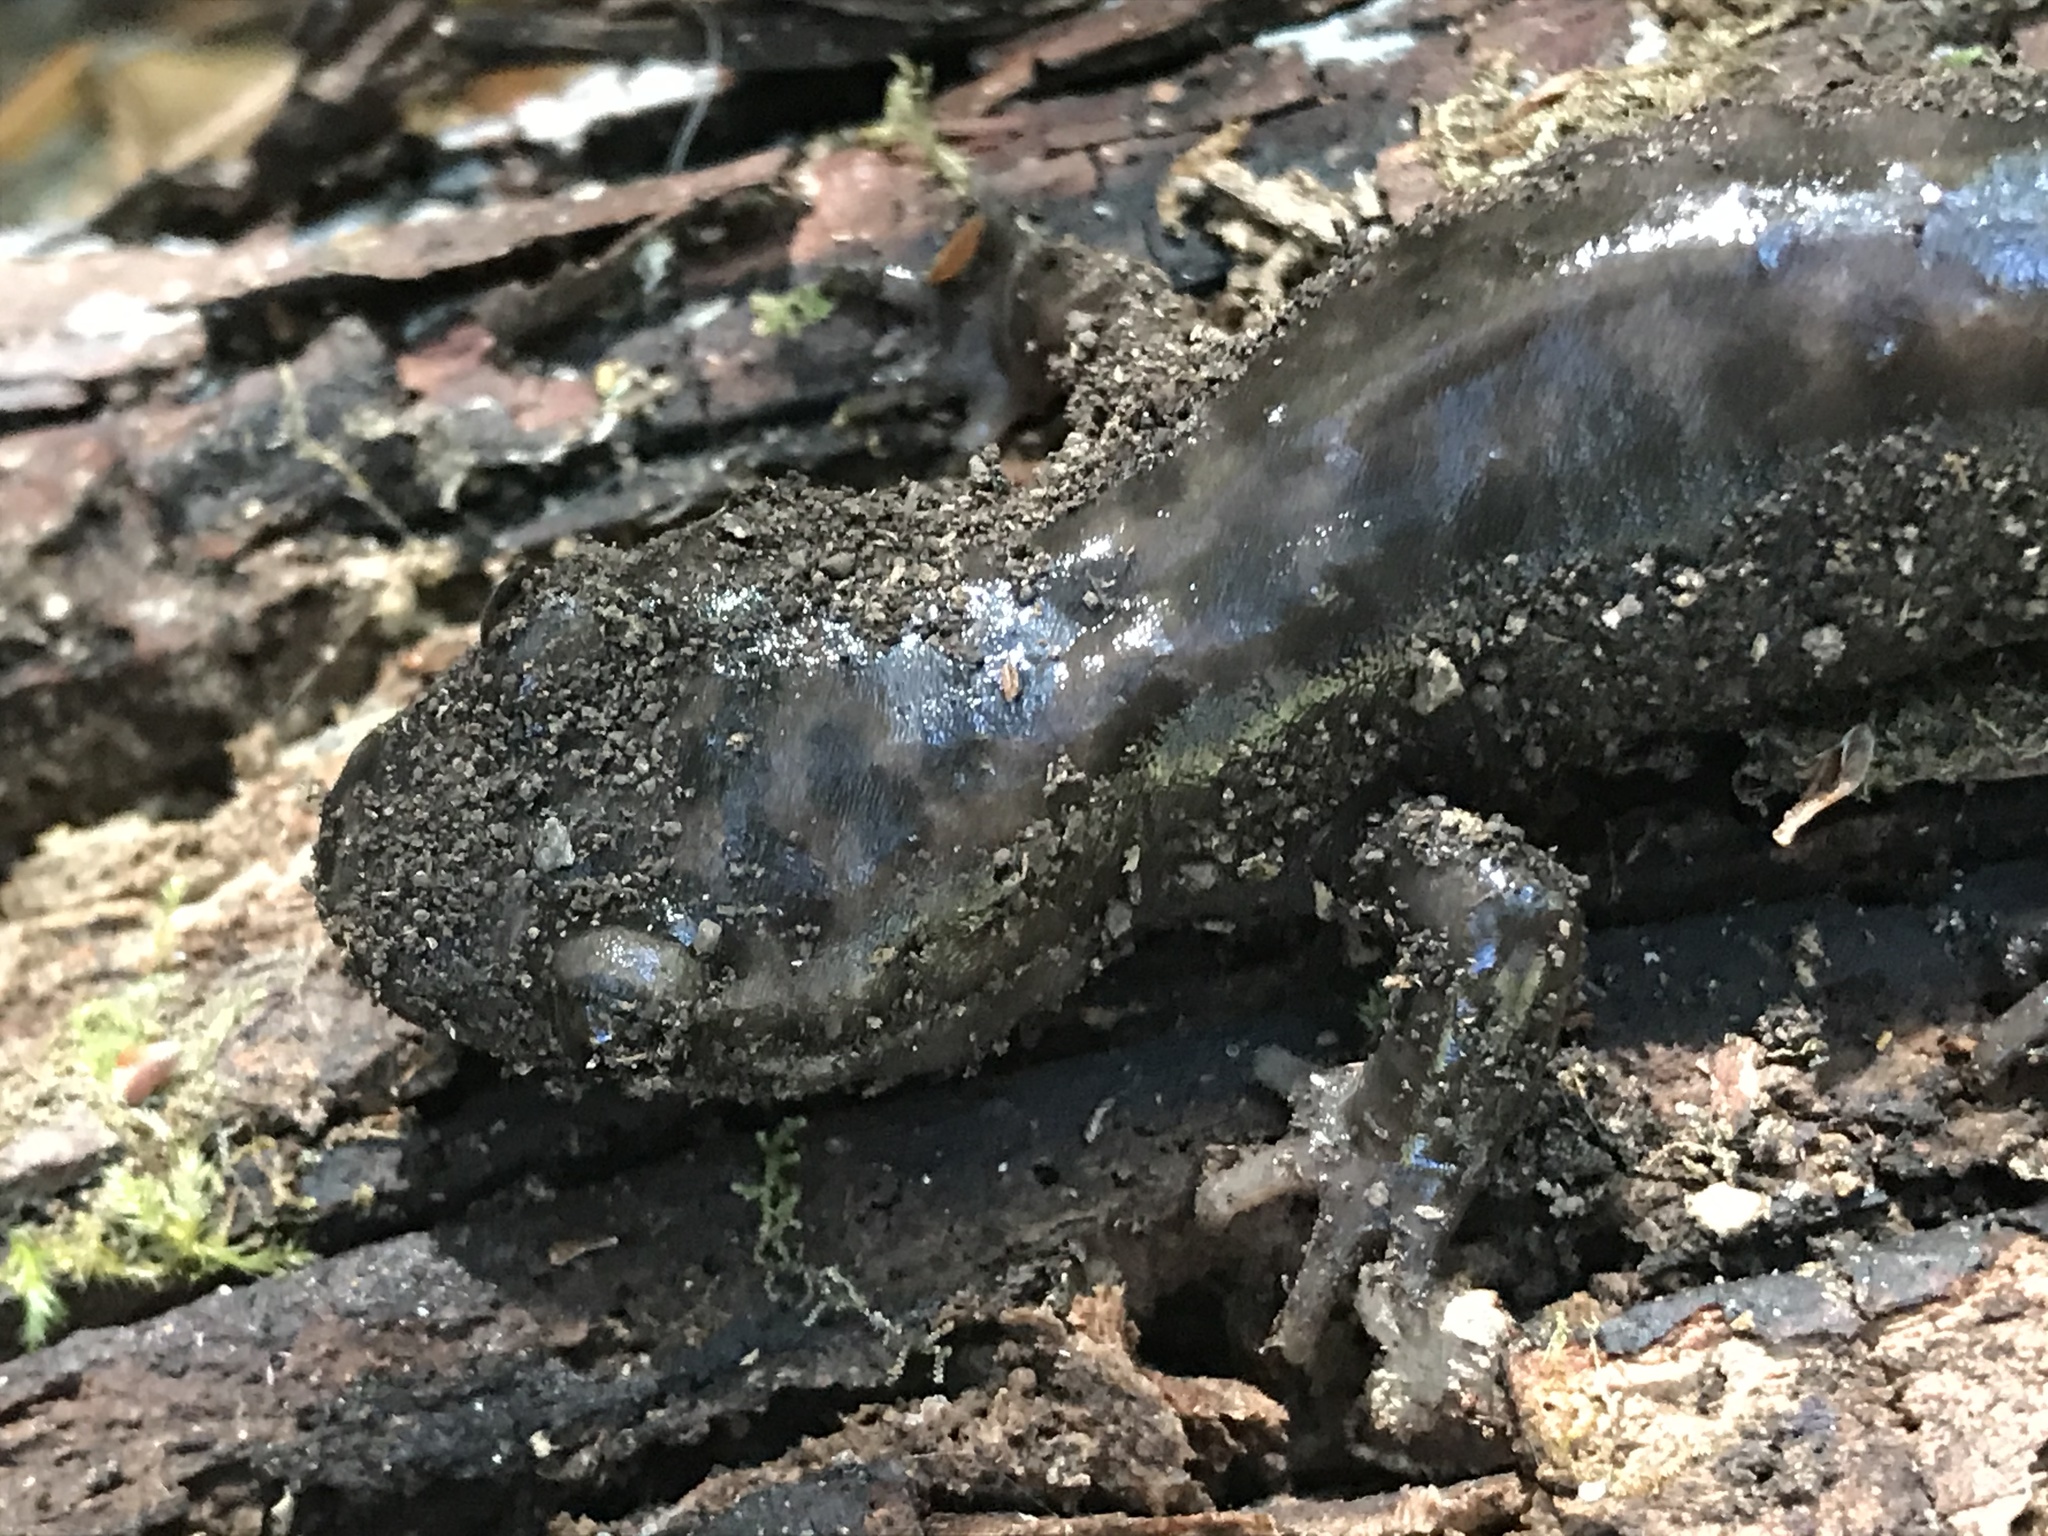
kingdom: Animalia
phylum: Chordata
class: Amphibia
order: Caudata
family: Ambystomatidae
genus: Dicamptodon
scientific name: Dicamptodon ensatus
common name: California giant salamander
